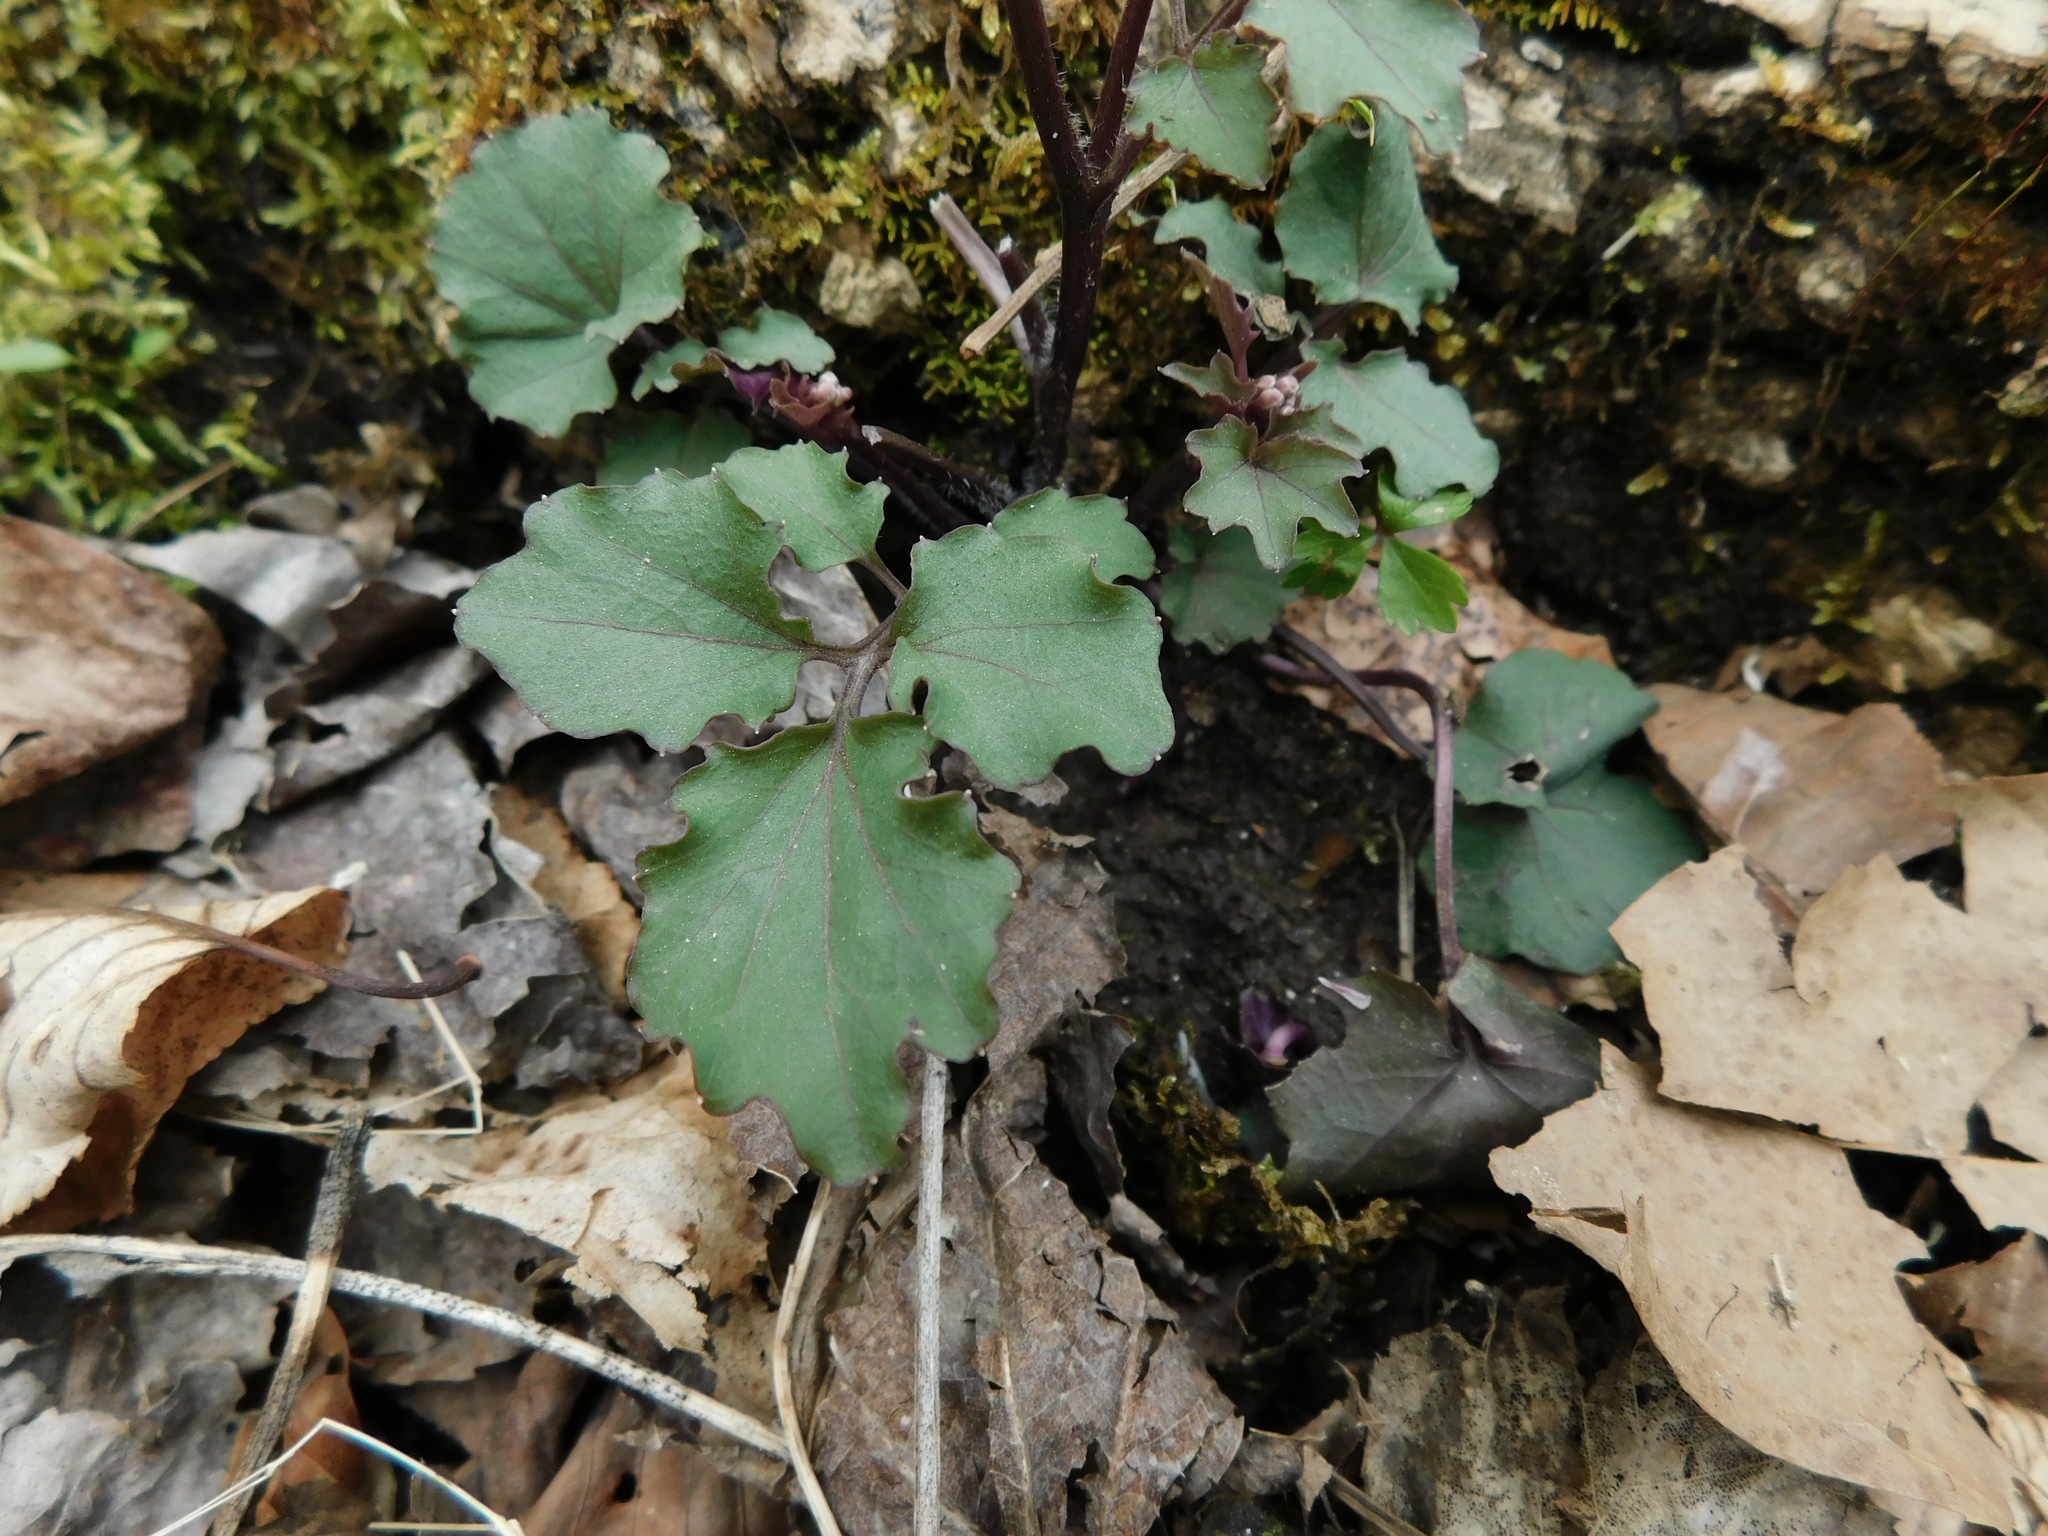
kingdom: Plantae
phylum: Tracheophyta
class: Magnoliopsida
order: Brassicales
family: Brassicaceae
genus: Cardamine
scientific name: Cardamine flagellifera
